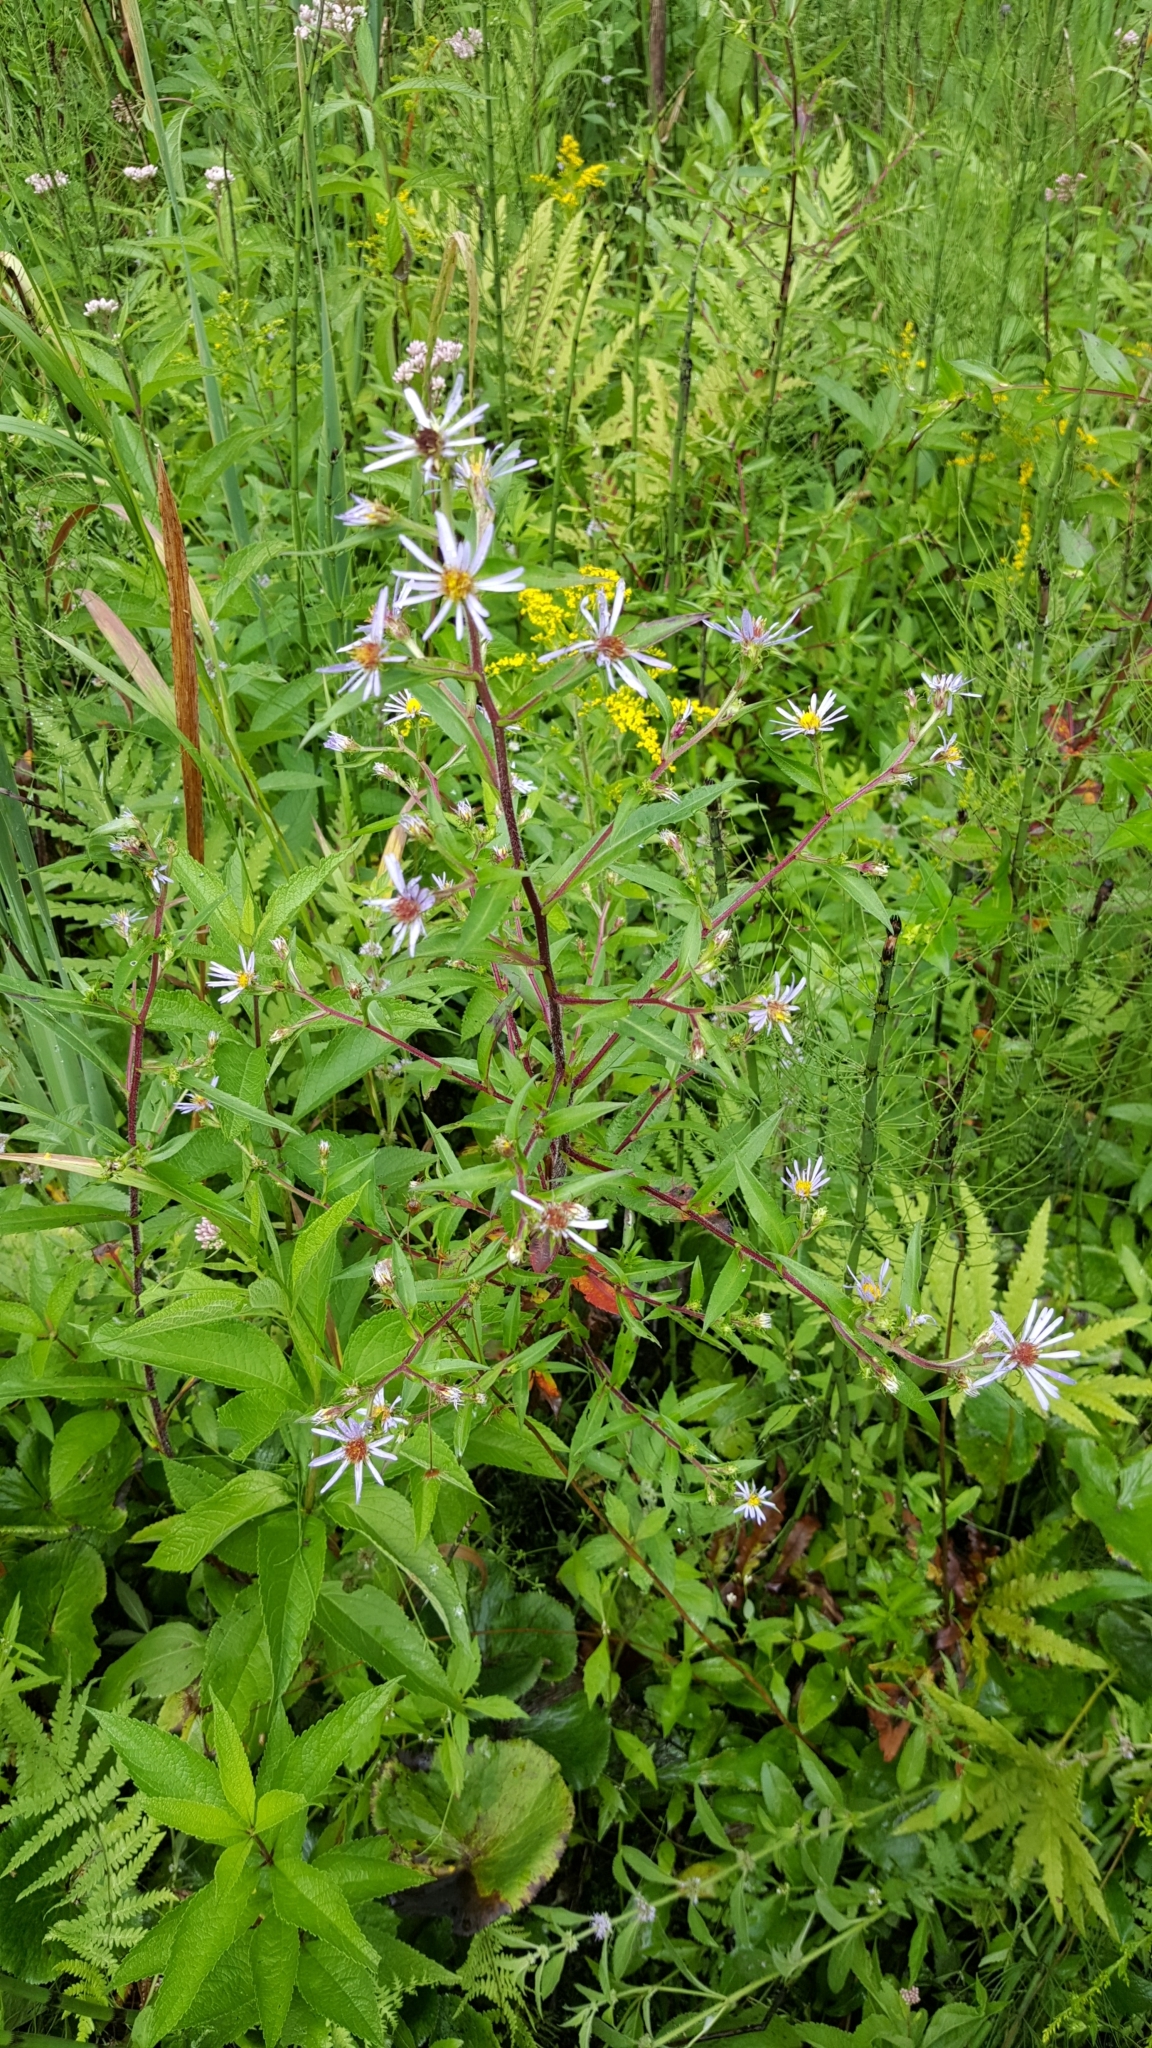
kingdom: Plantae
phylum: Tracheophyta
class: Magnoliopsida
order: Asterales
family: Asteraceae
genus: Symphyotrichum
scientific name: Symphyotrichum puniceum
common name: Bog aster
